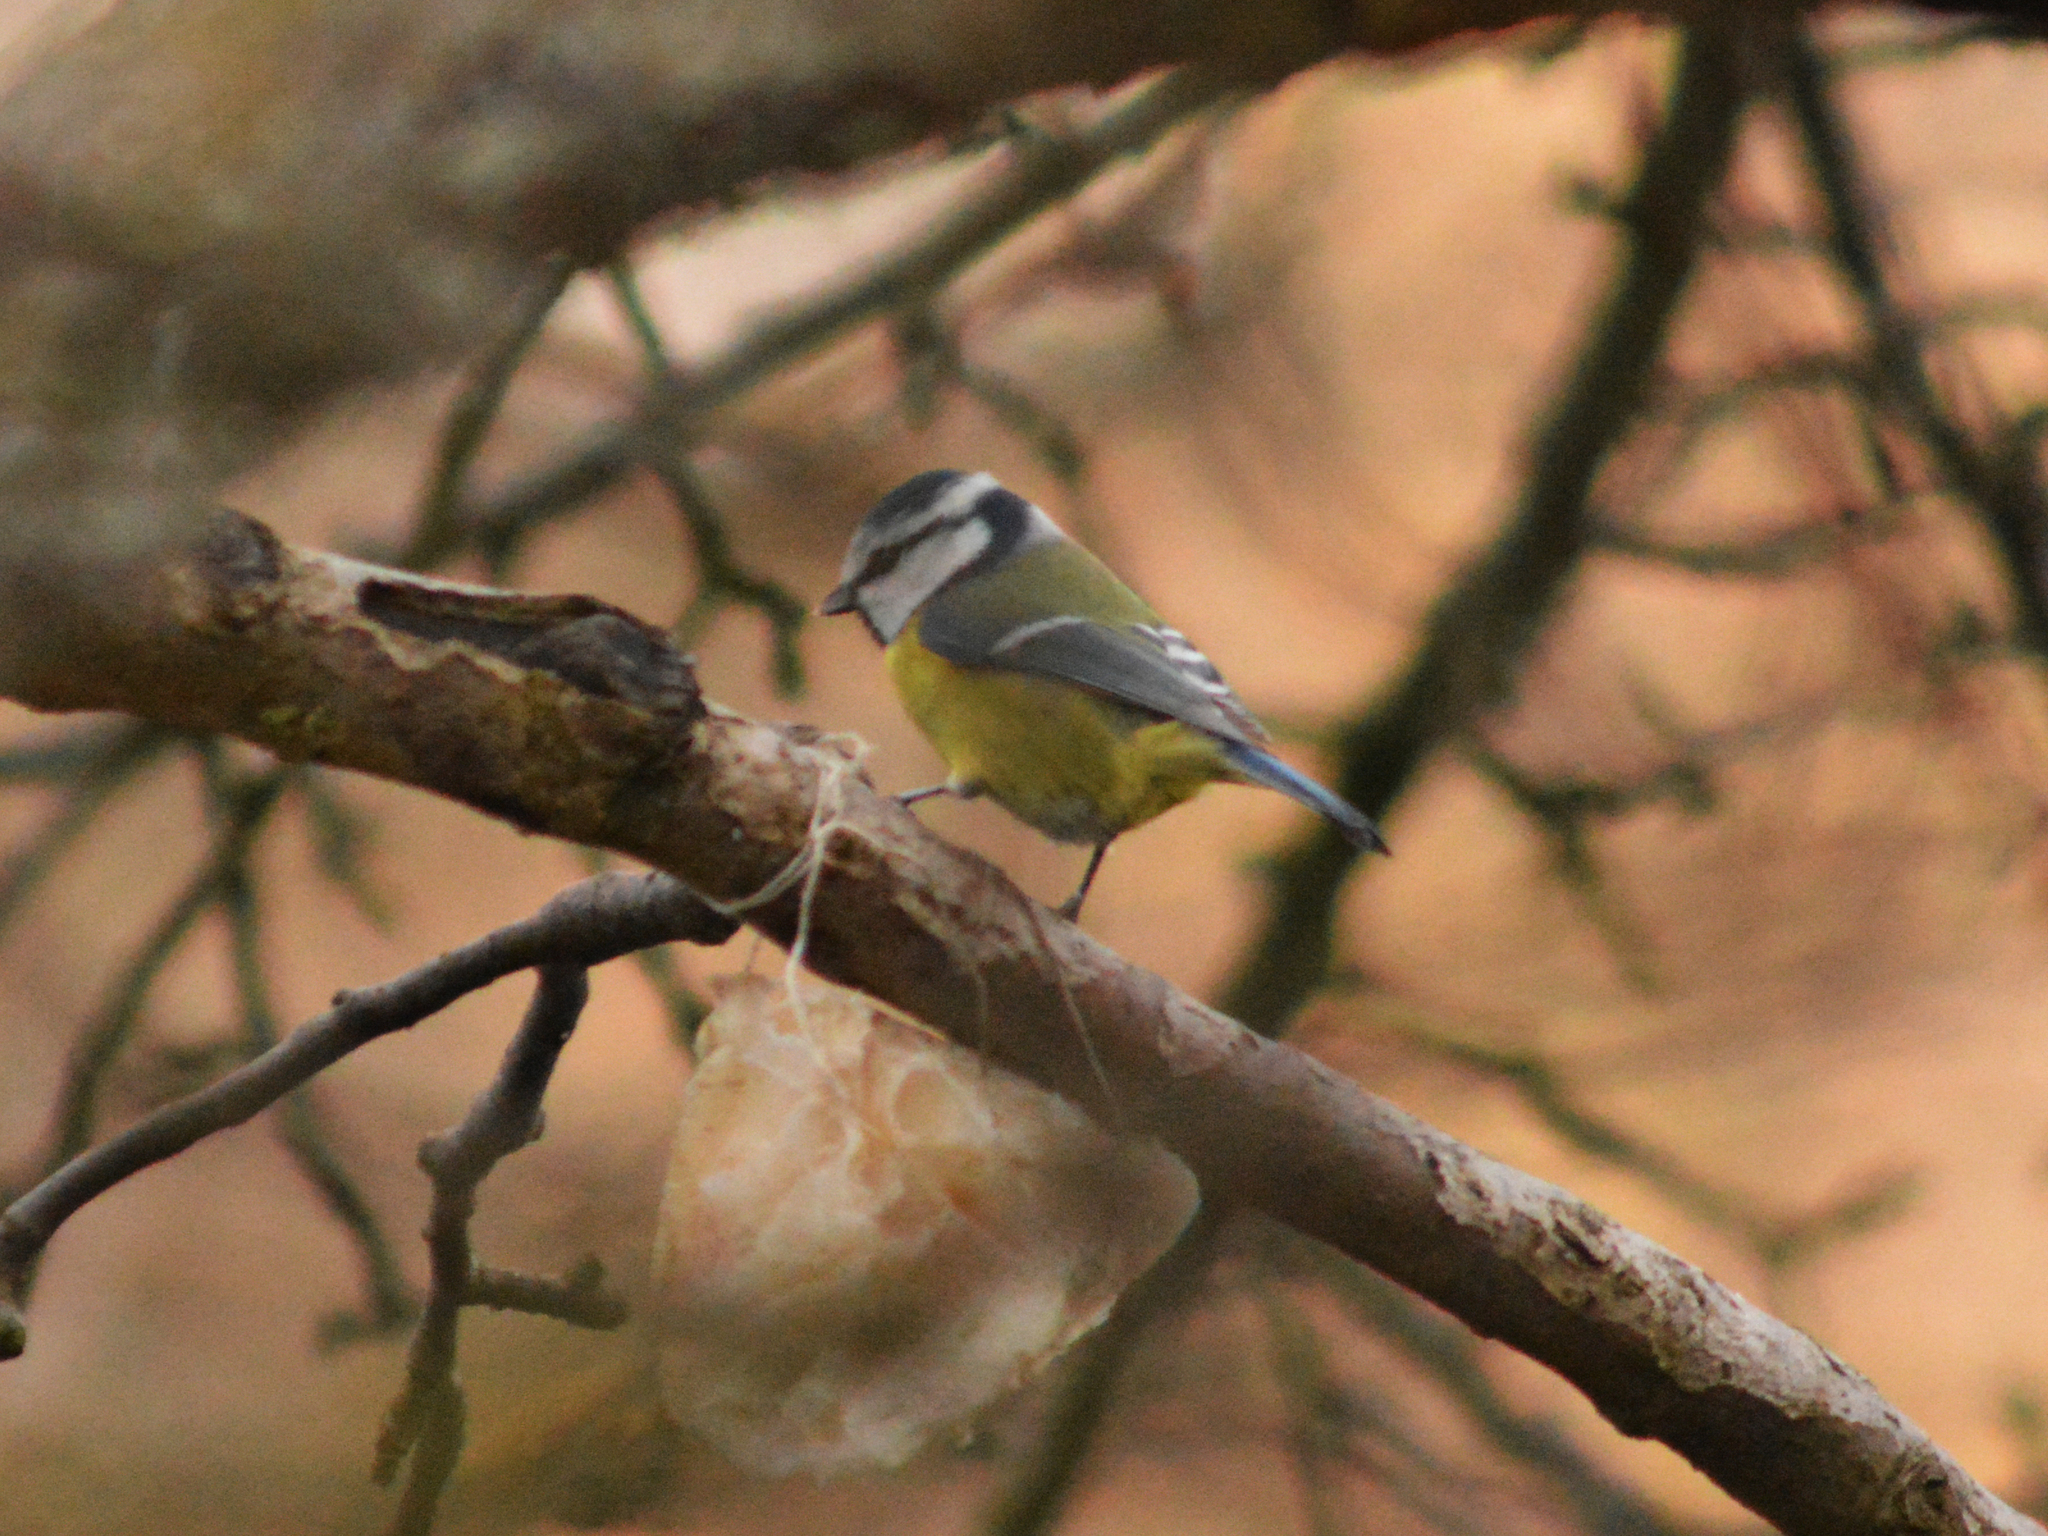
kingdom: Animalia
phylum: Chordata
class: Aves
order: Passeriformes
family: Paridae
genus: Cyanistes
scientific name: Cyanistes caeruleus
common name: Eurasian blue tit
